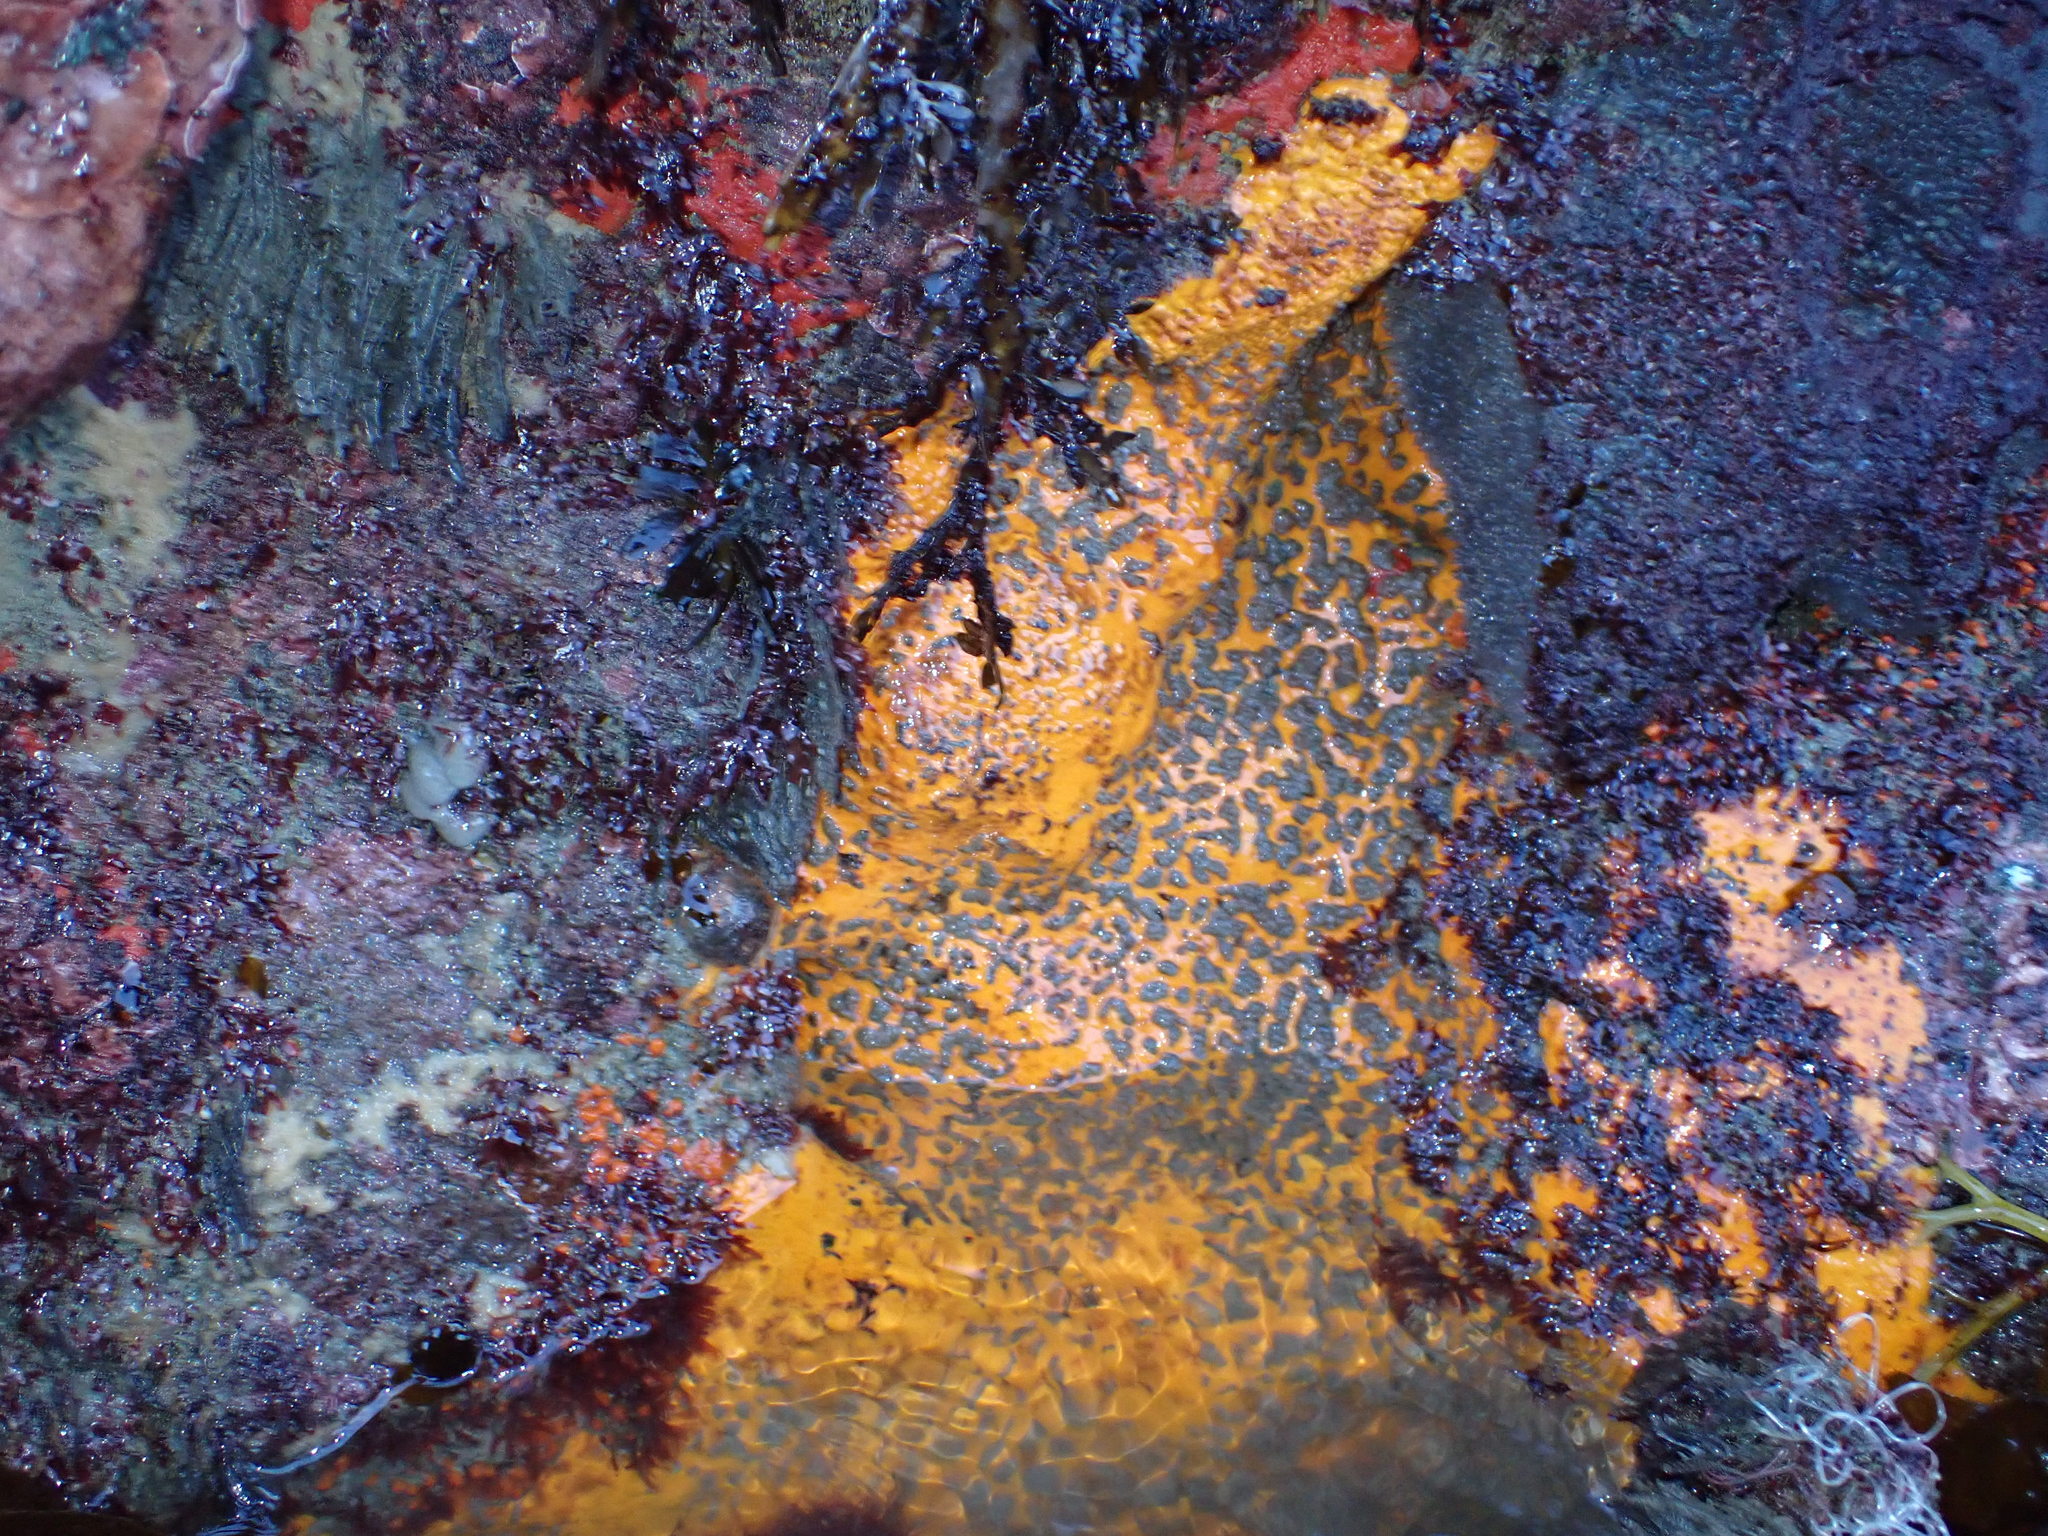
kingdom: Animalia
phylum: Porifera
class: Demospongiae
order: Clionaida
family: Clionaidae
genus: Cliona
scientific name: Cliona celata
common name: Boring sponge
